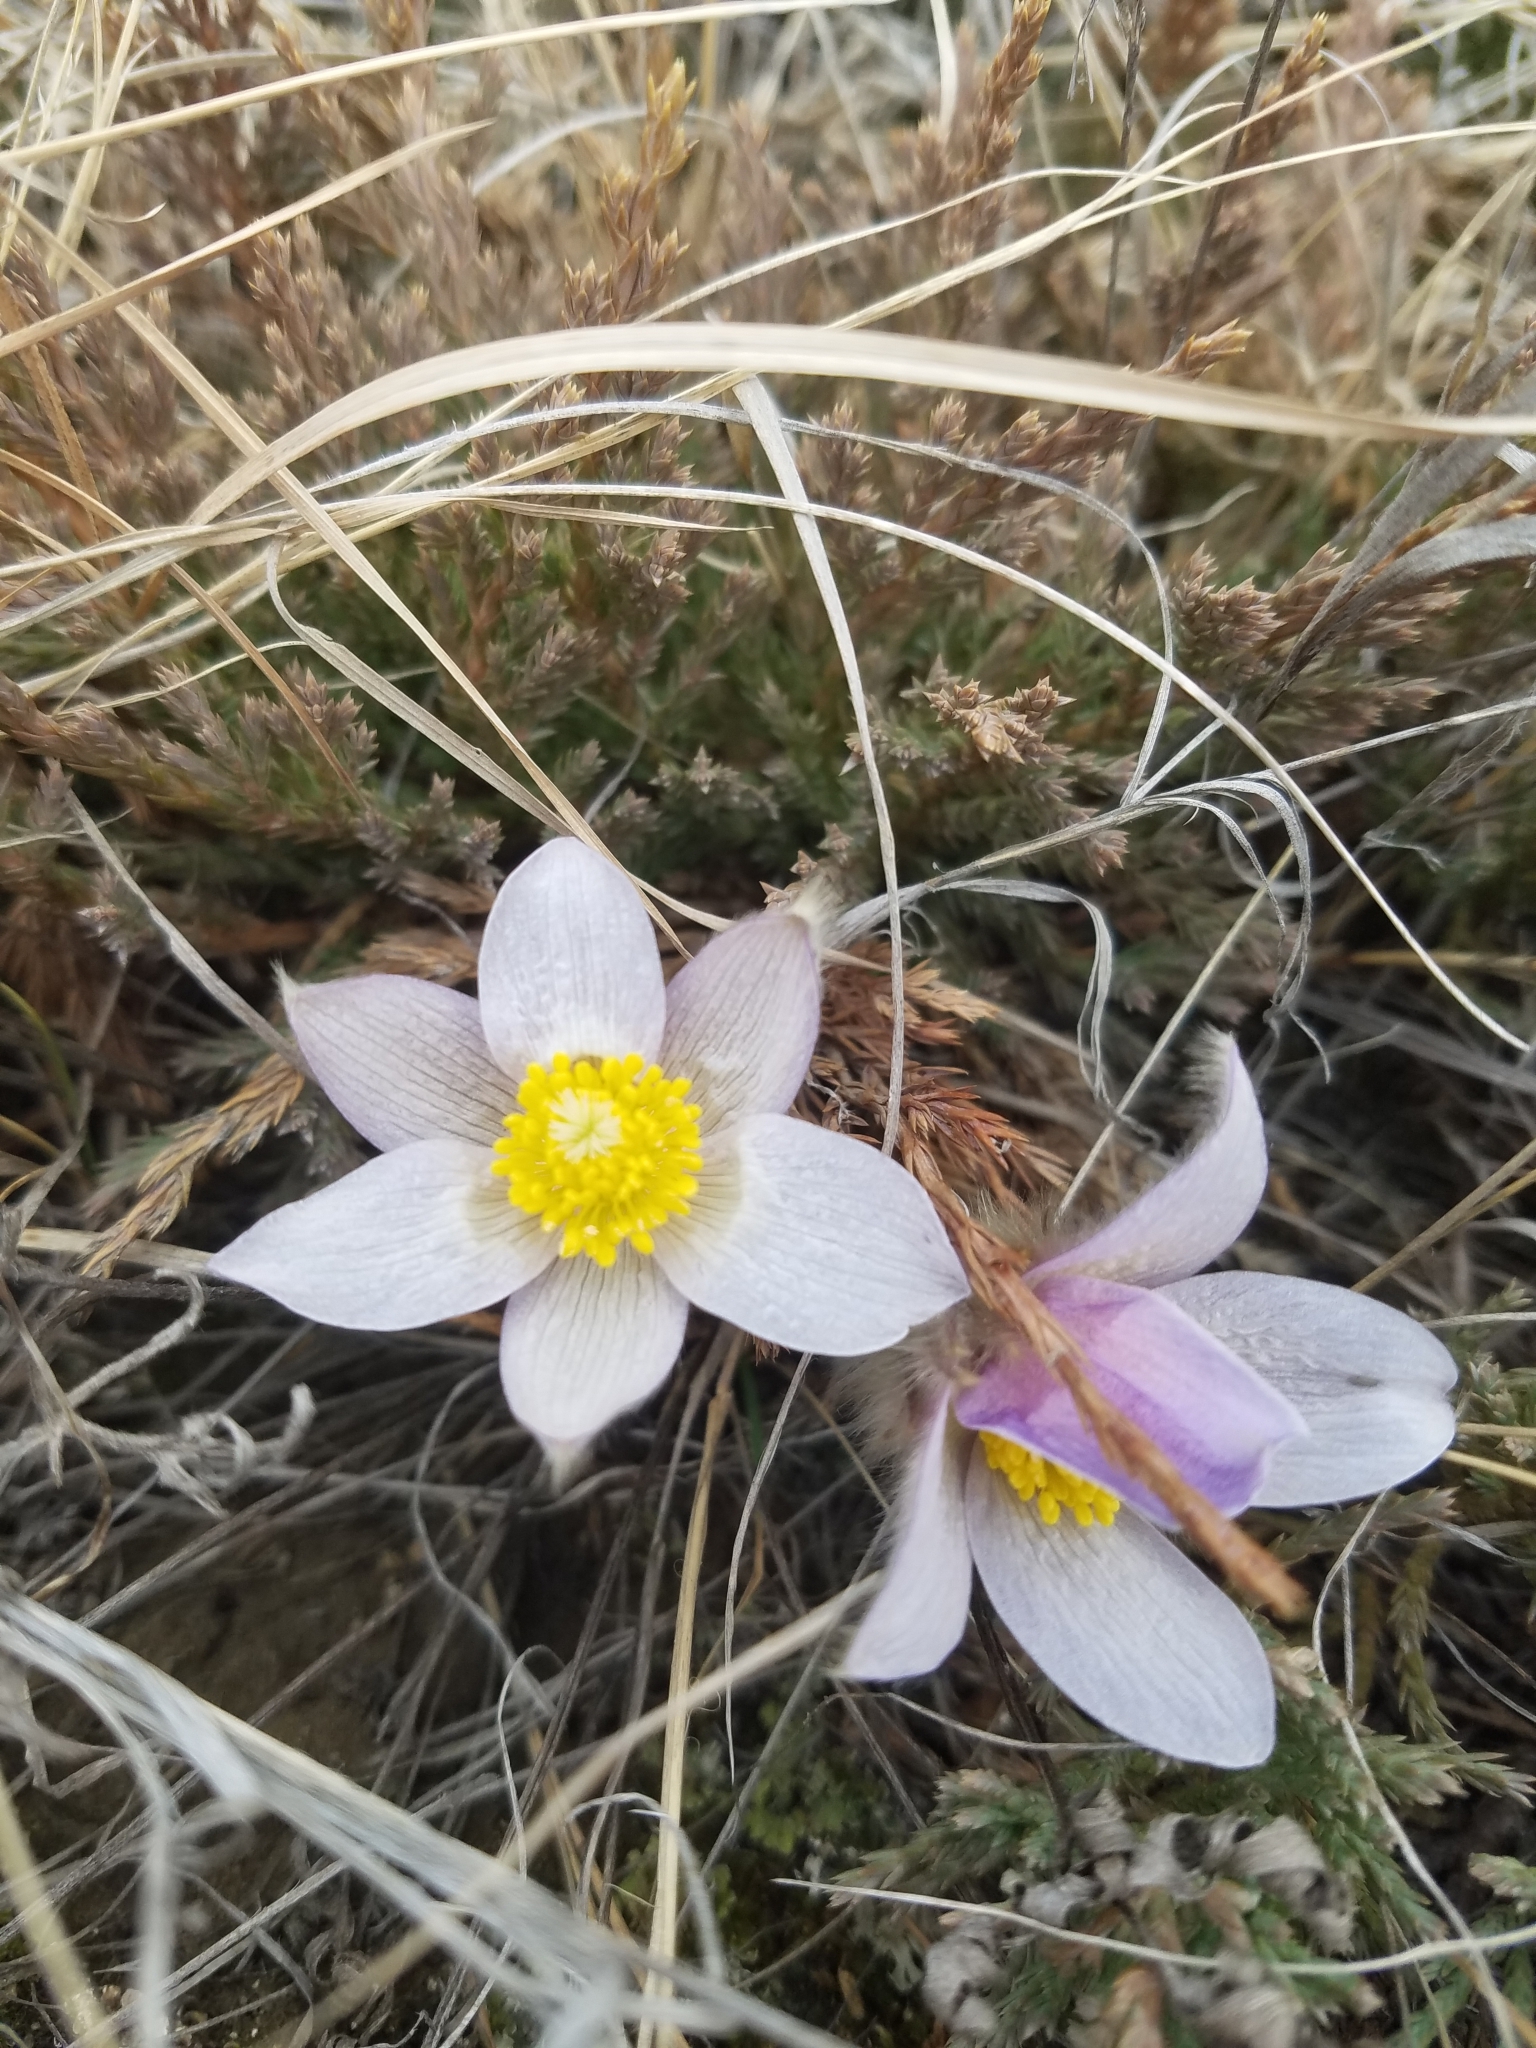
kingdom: Plantae
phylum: Tracheophyta
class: Magnoliopsida
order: Ranunculales
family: Ranunculaceae
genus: Pulsatilla
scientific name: Pulsatilla nuttalliana
